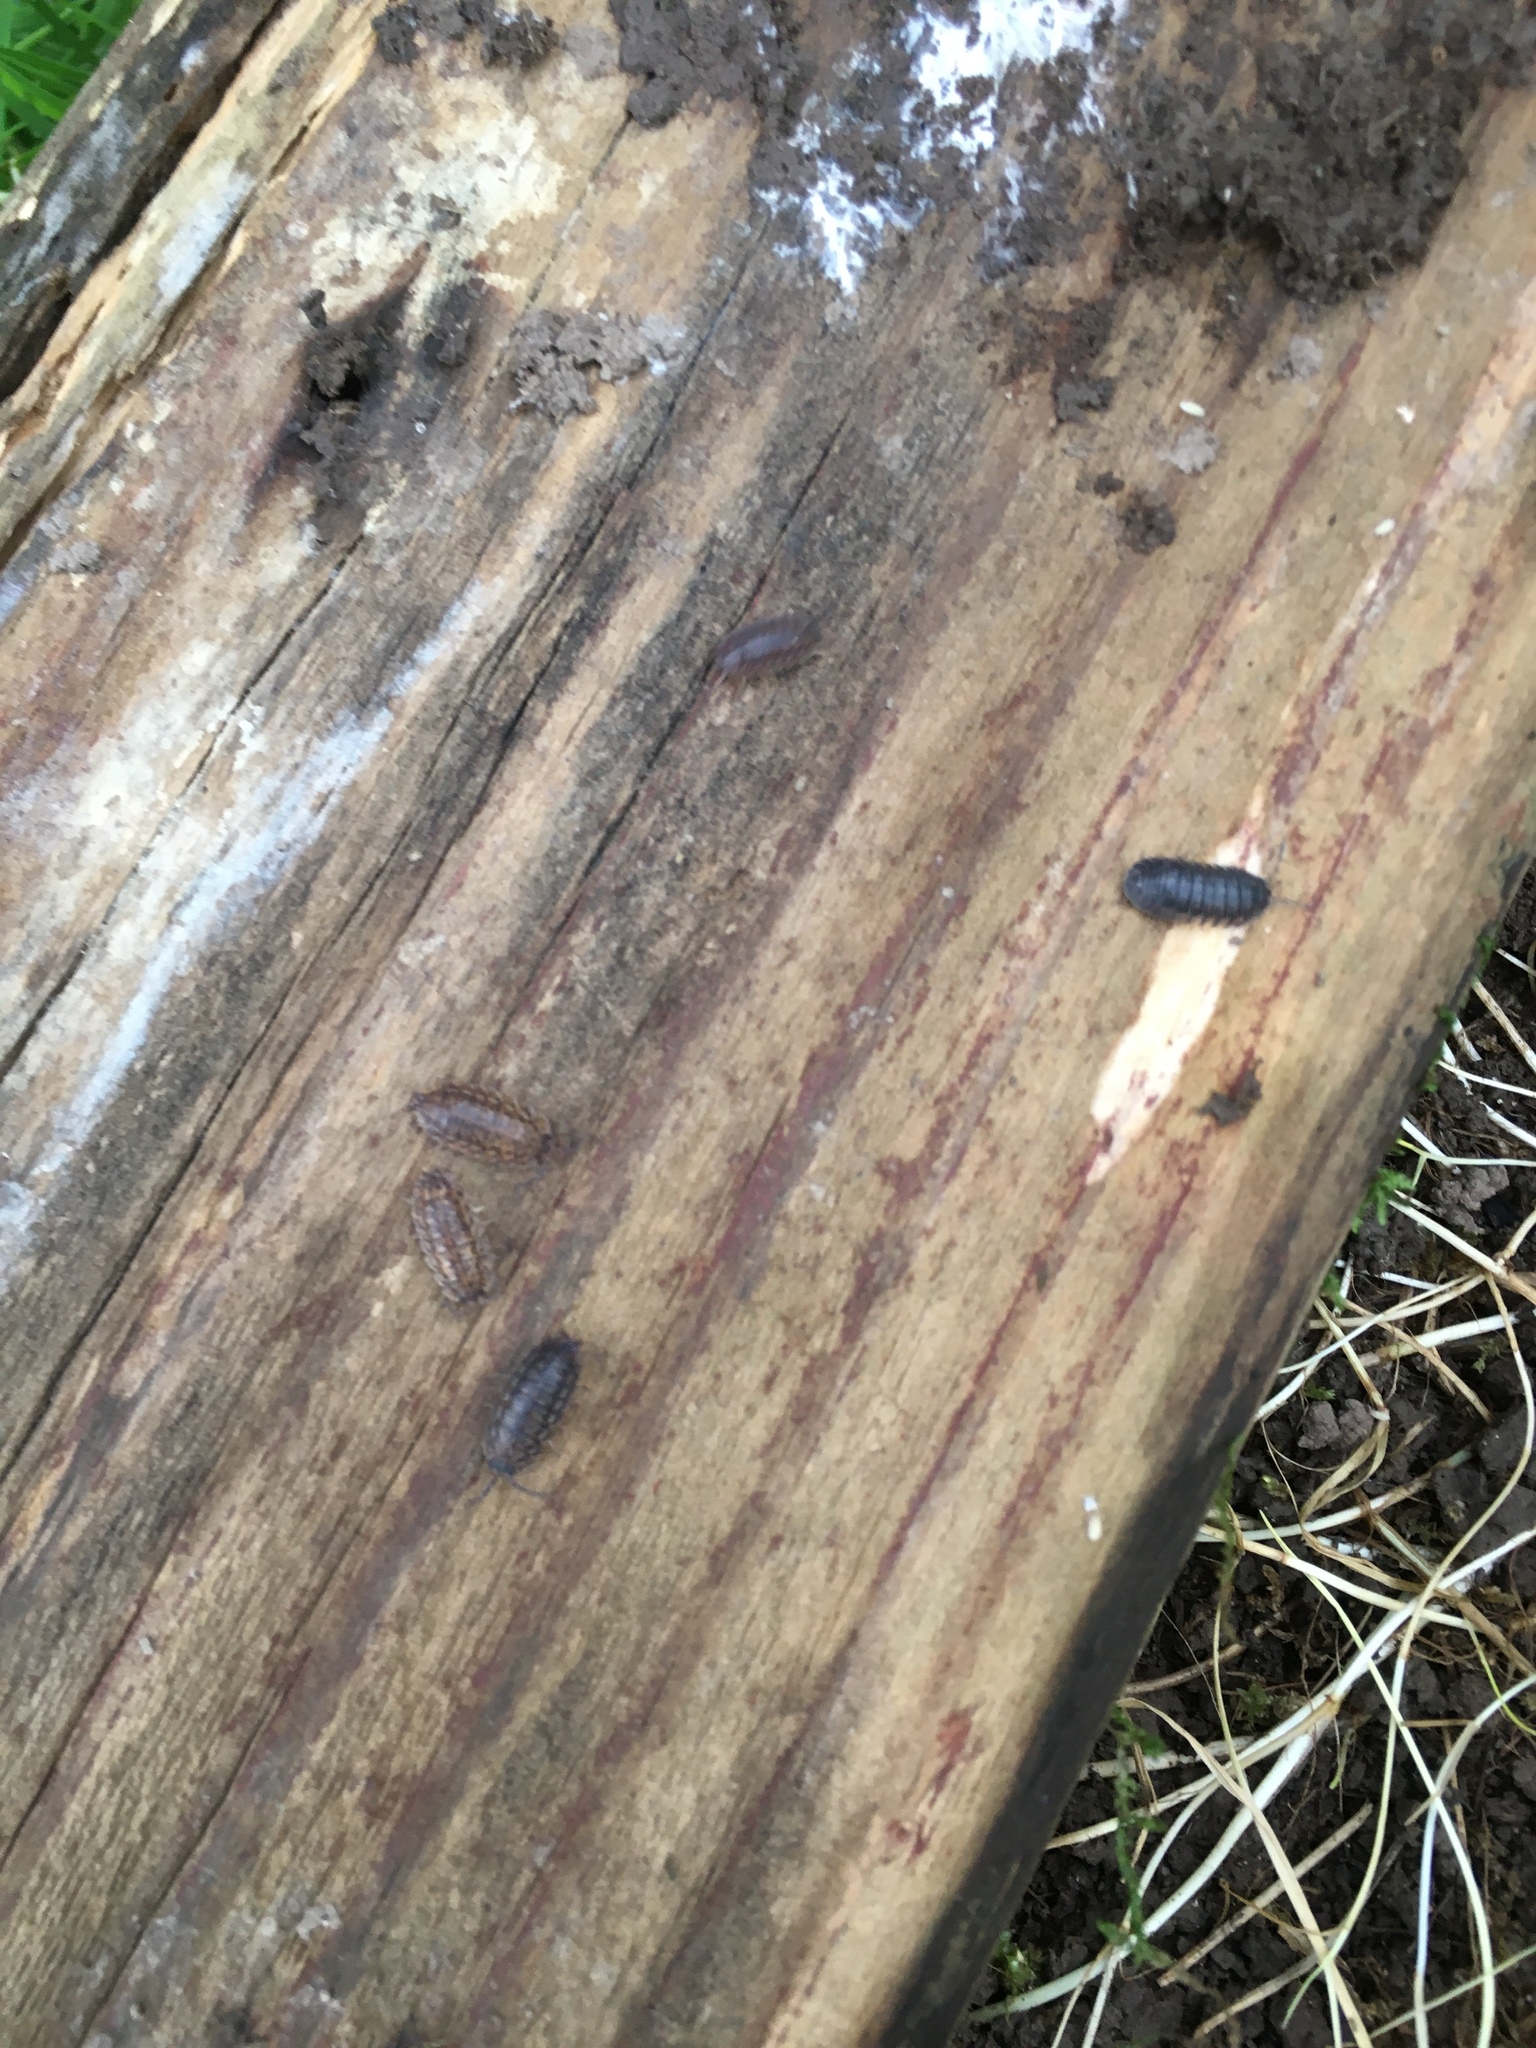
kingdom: Animalia
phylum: Arthropoda
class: Malacostraca
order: Isopoda
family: Trachelipodidae
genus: Trachelipus
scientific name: Trachelipus rathkii
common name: Isopod
